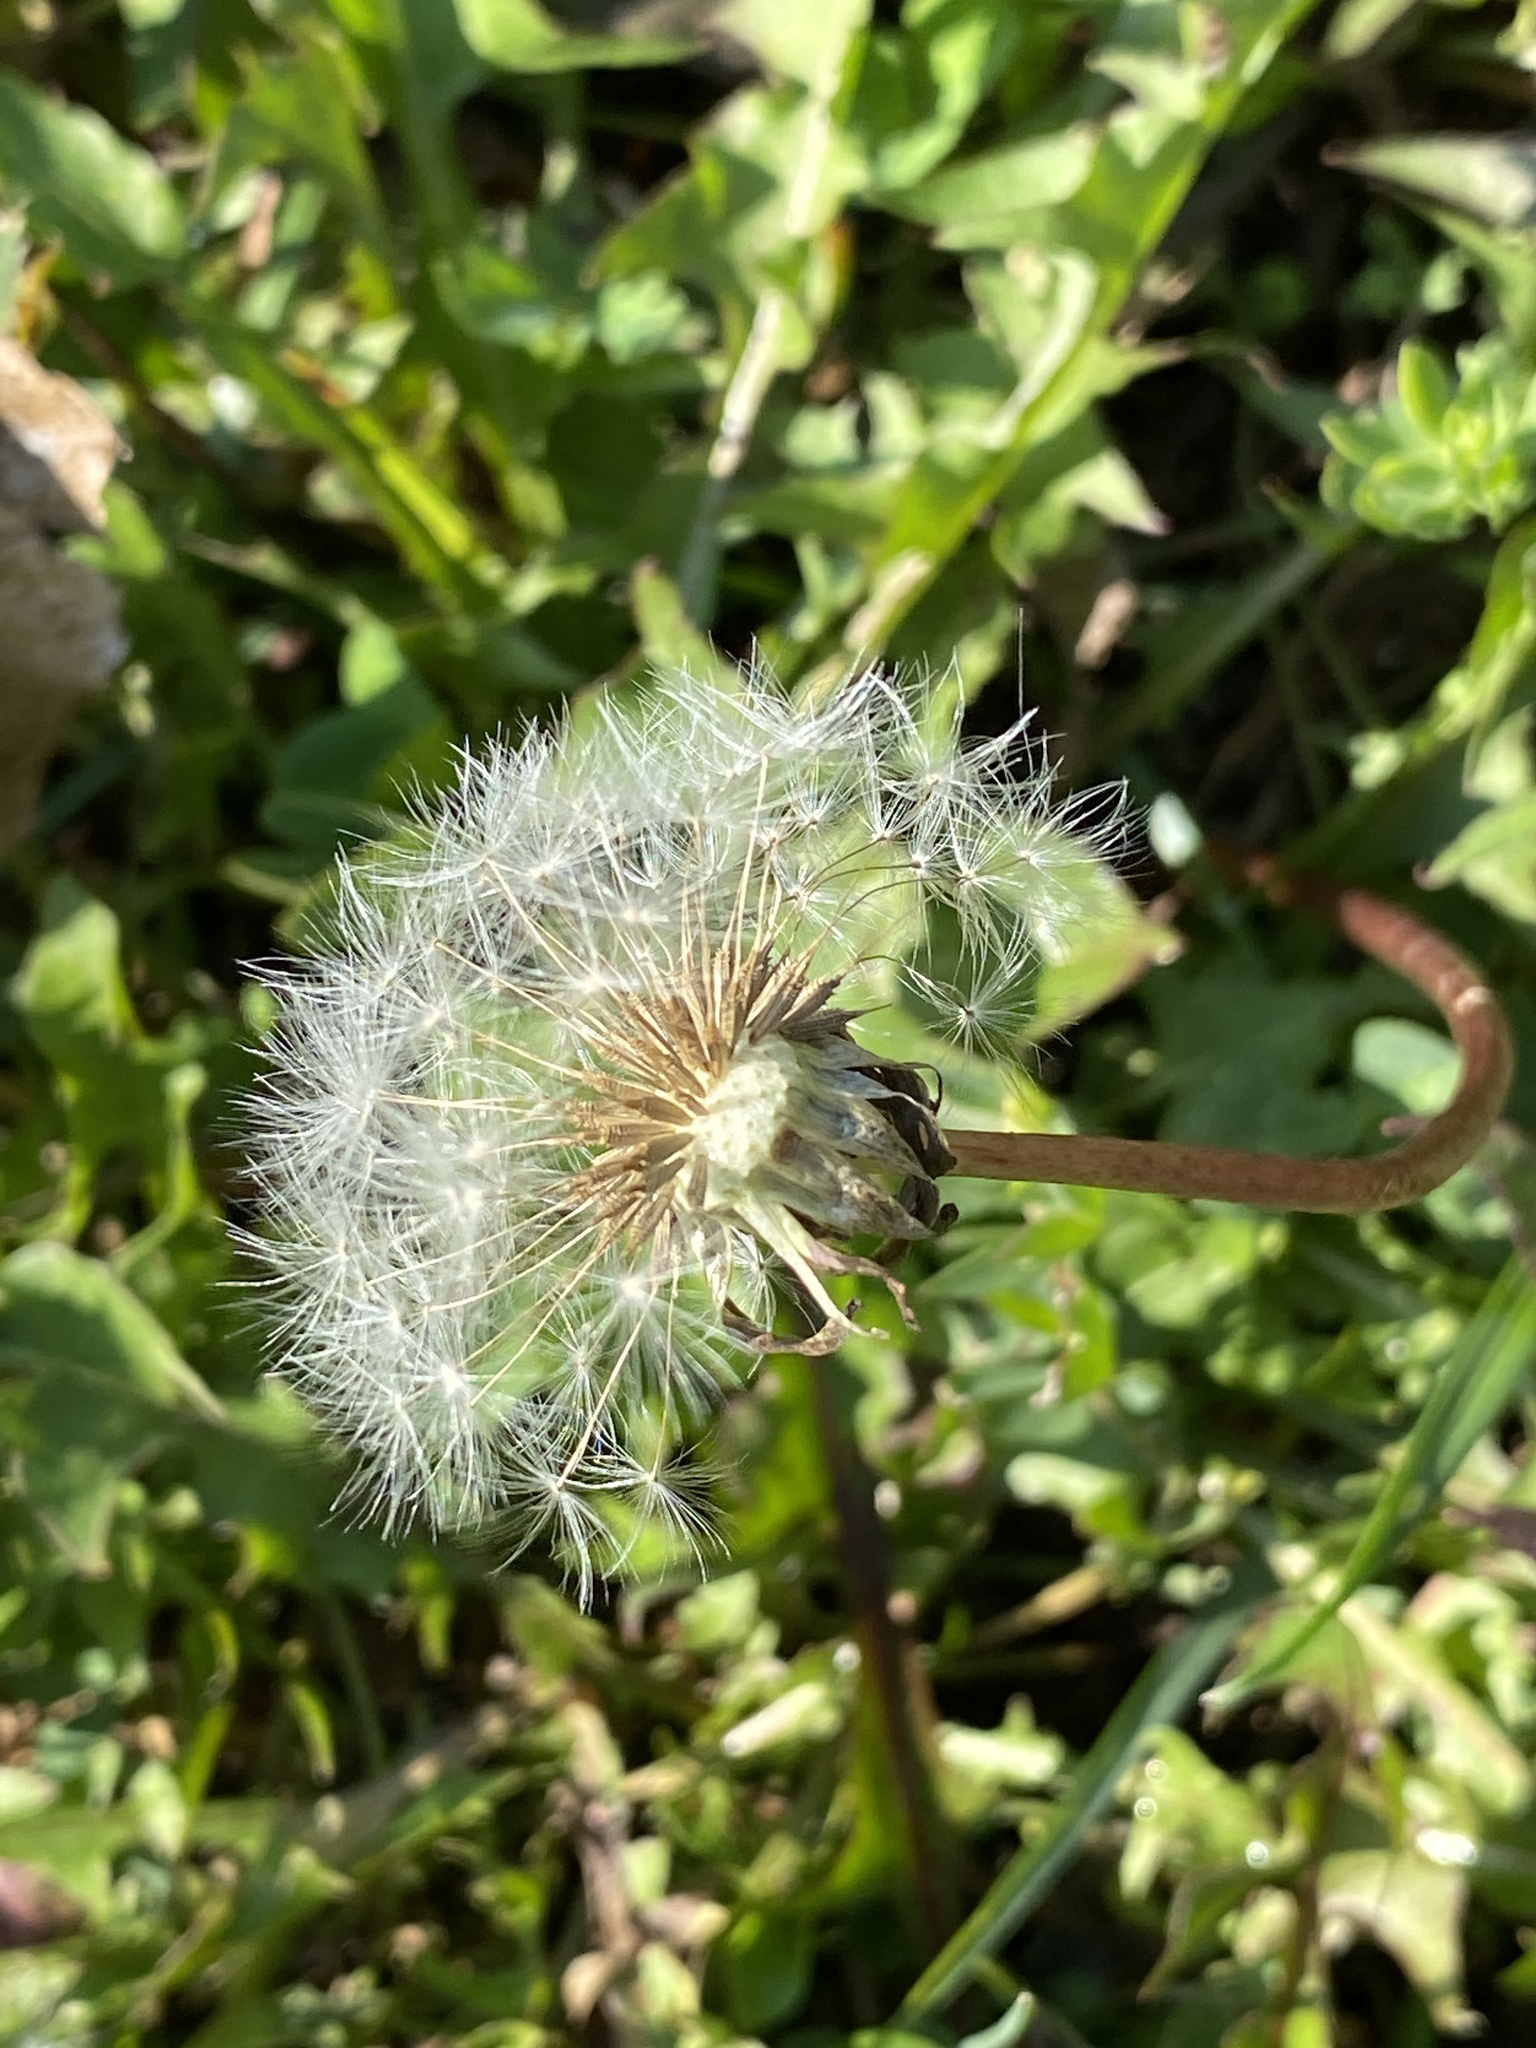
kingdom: Plantae
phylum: Tracheophyta
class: Magnoliopsida
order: Asterales
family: Asteraceae
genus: Taraxacum
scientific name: Taraxacum officinale
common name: Common dandelion
